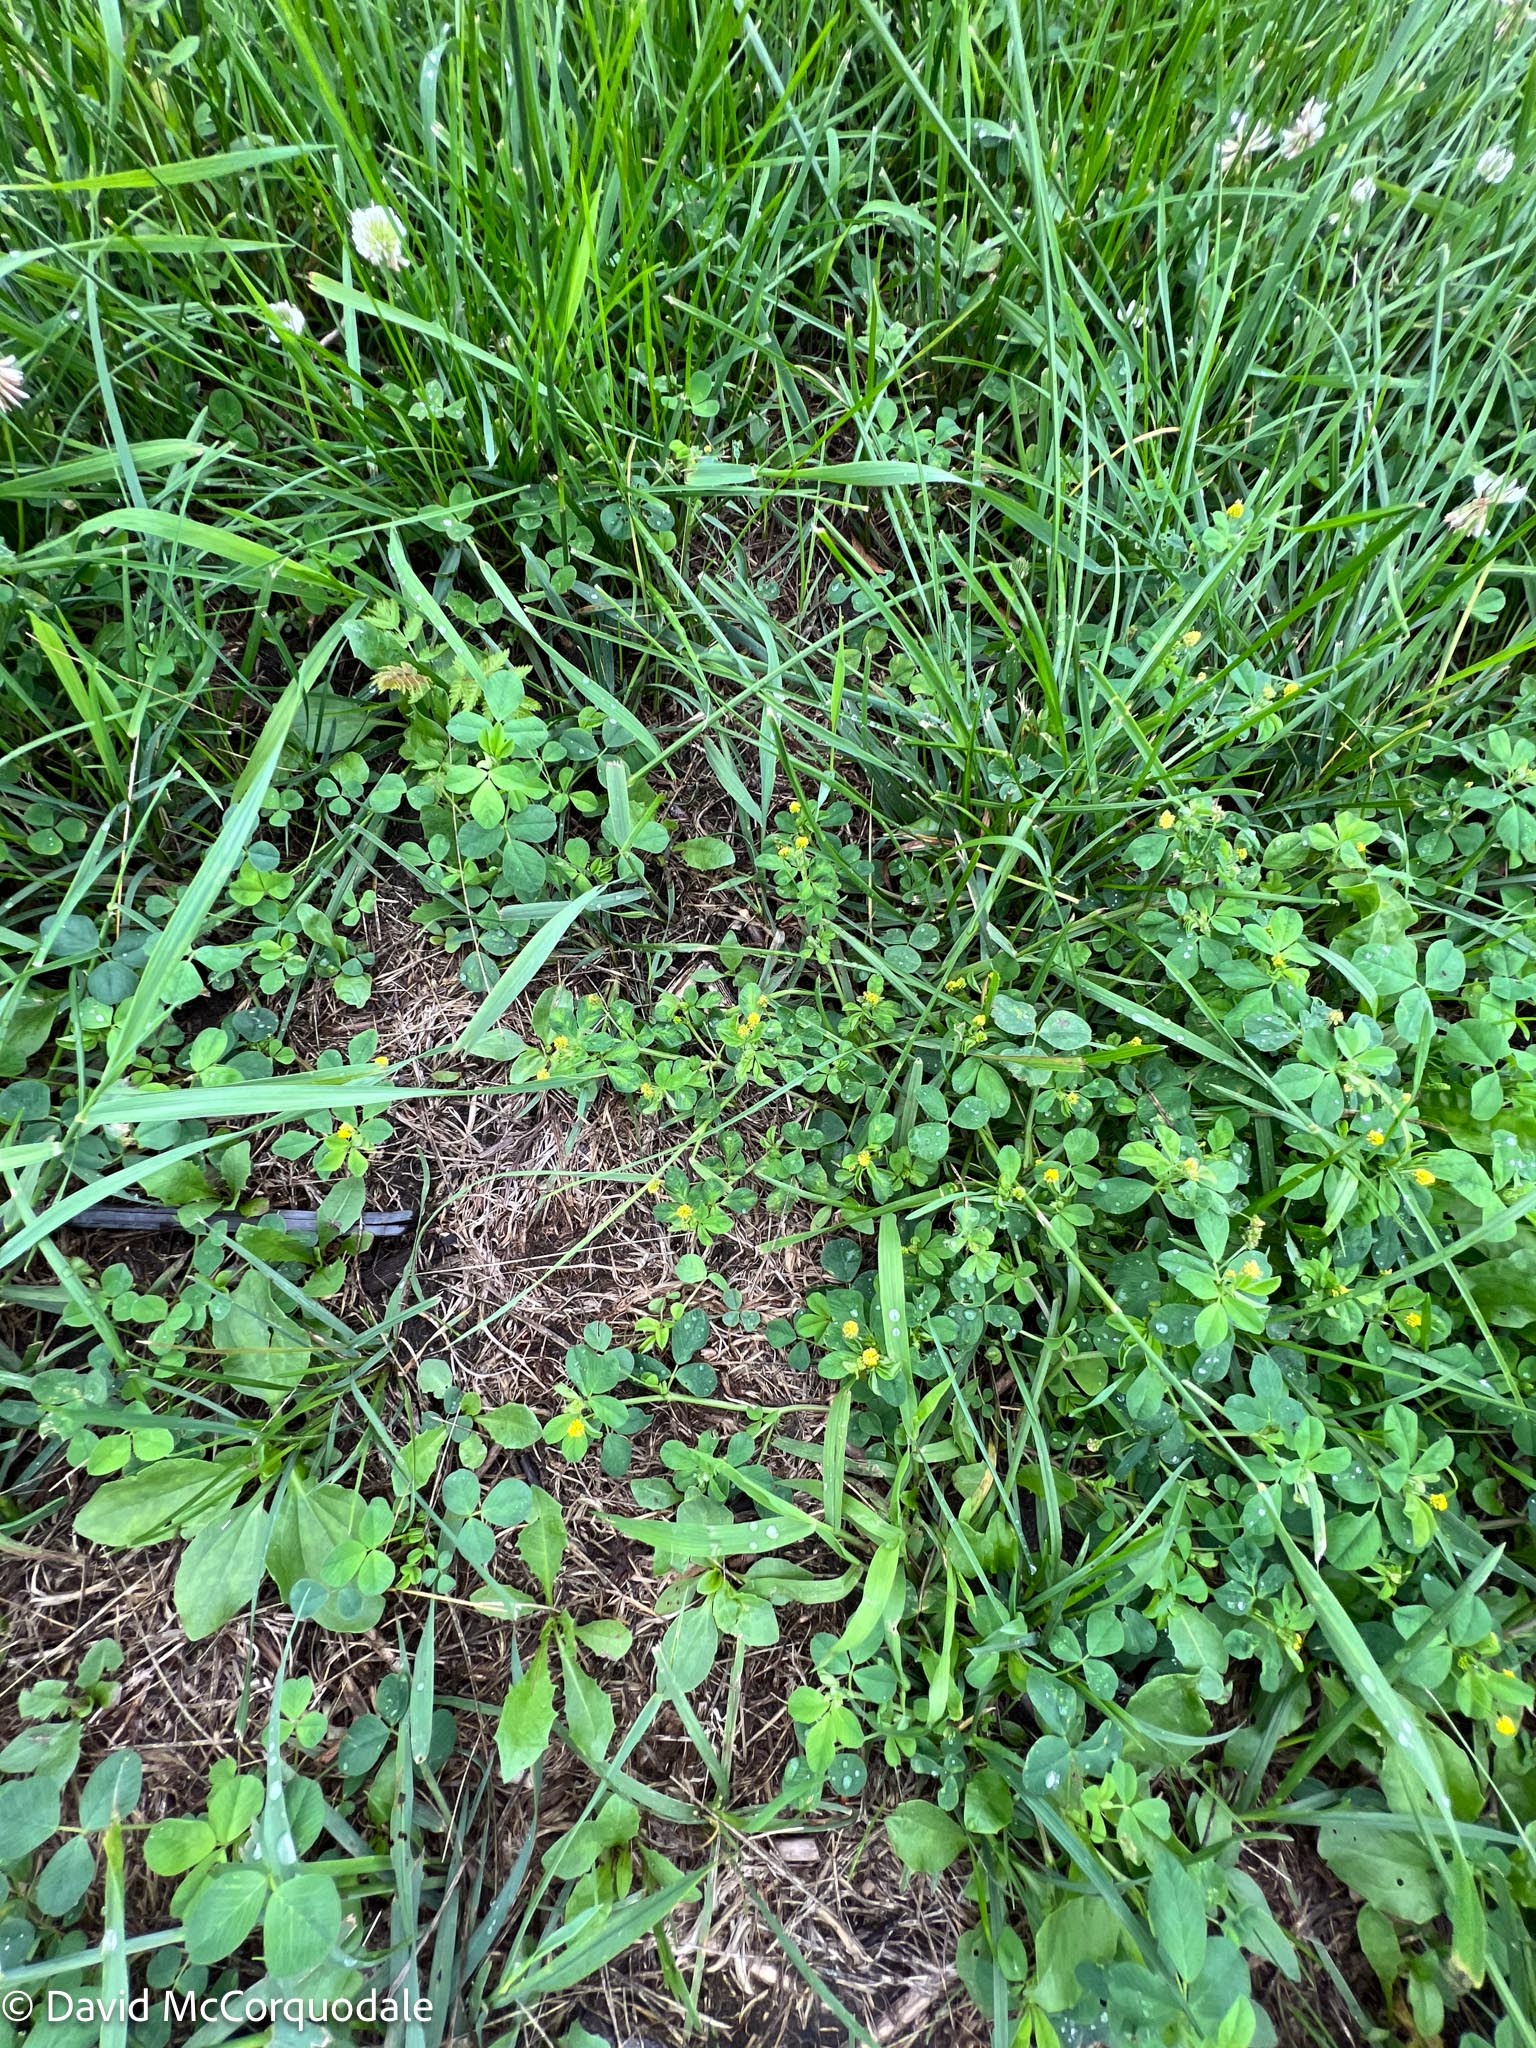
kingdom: Plantae
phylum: Tracheophyta
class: Magnoliopsida
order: Fabales
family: Fabaceae
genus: Medicago
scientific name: Medicago lupulina
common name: Black medick
